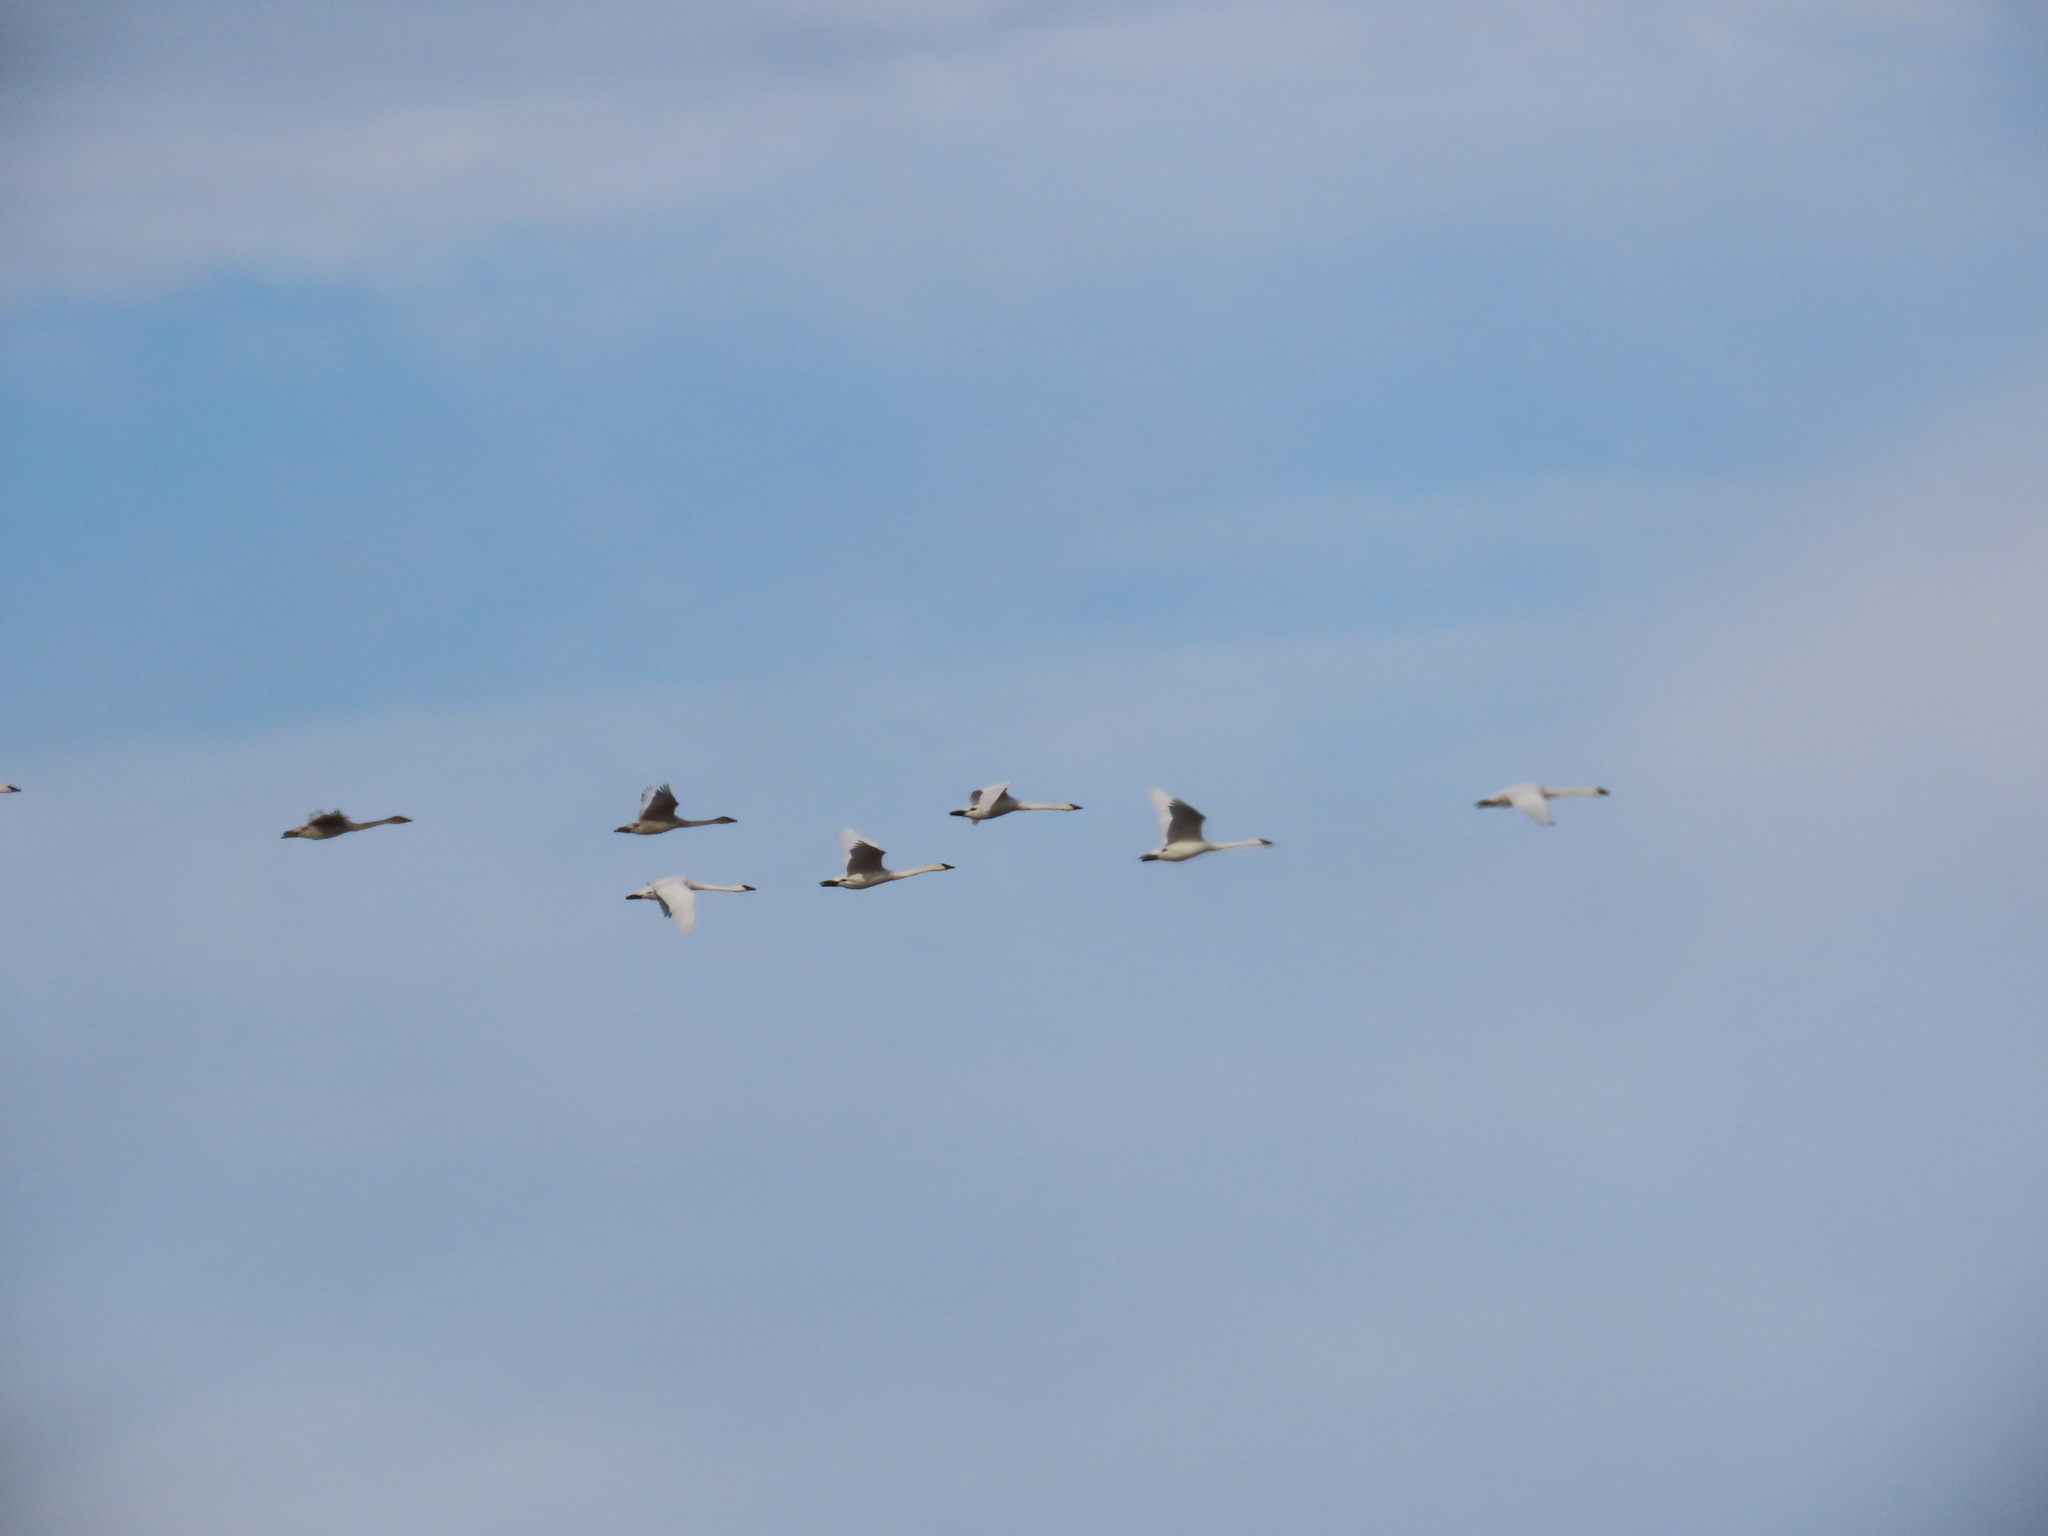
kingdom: Animalia
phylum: Chordata
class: Aves
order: Anseriformes
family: Anatidae
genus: Cygnus
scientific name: Cygnus buccinator
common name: Trumpeter swan
